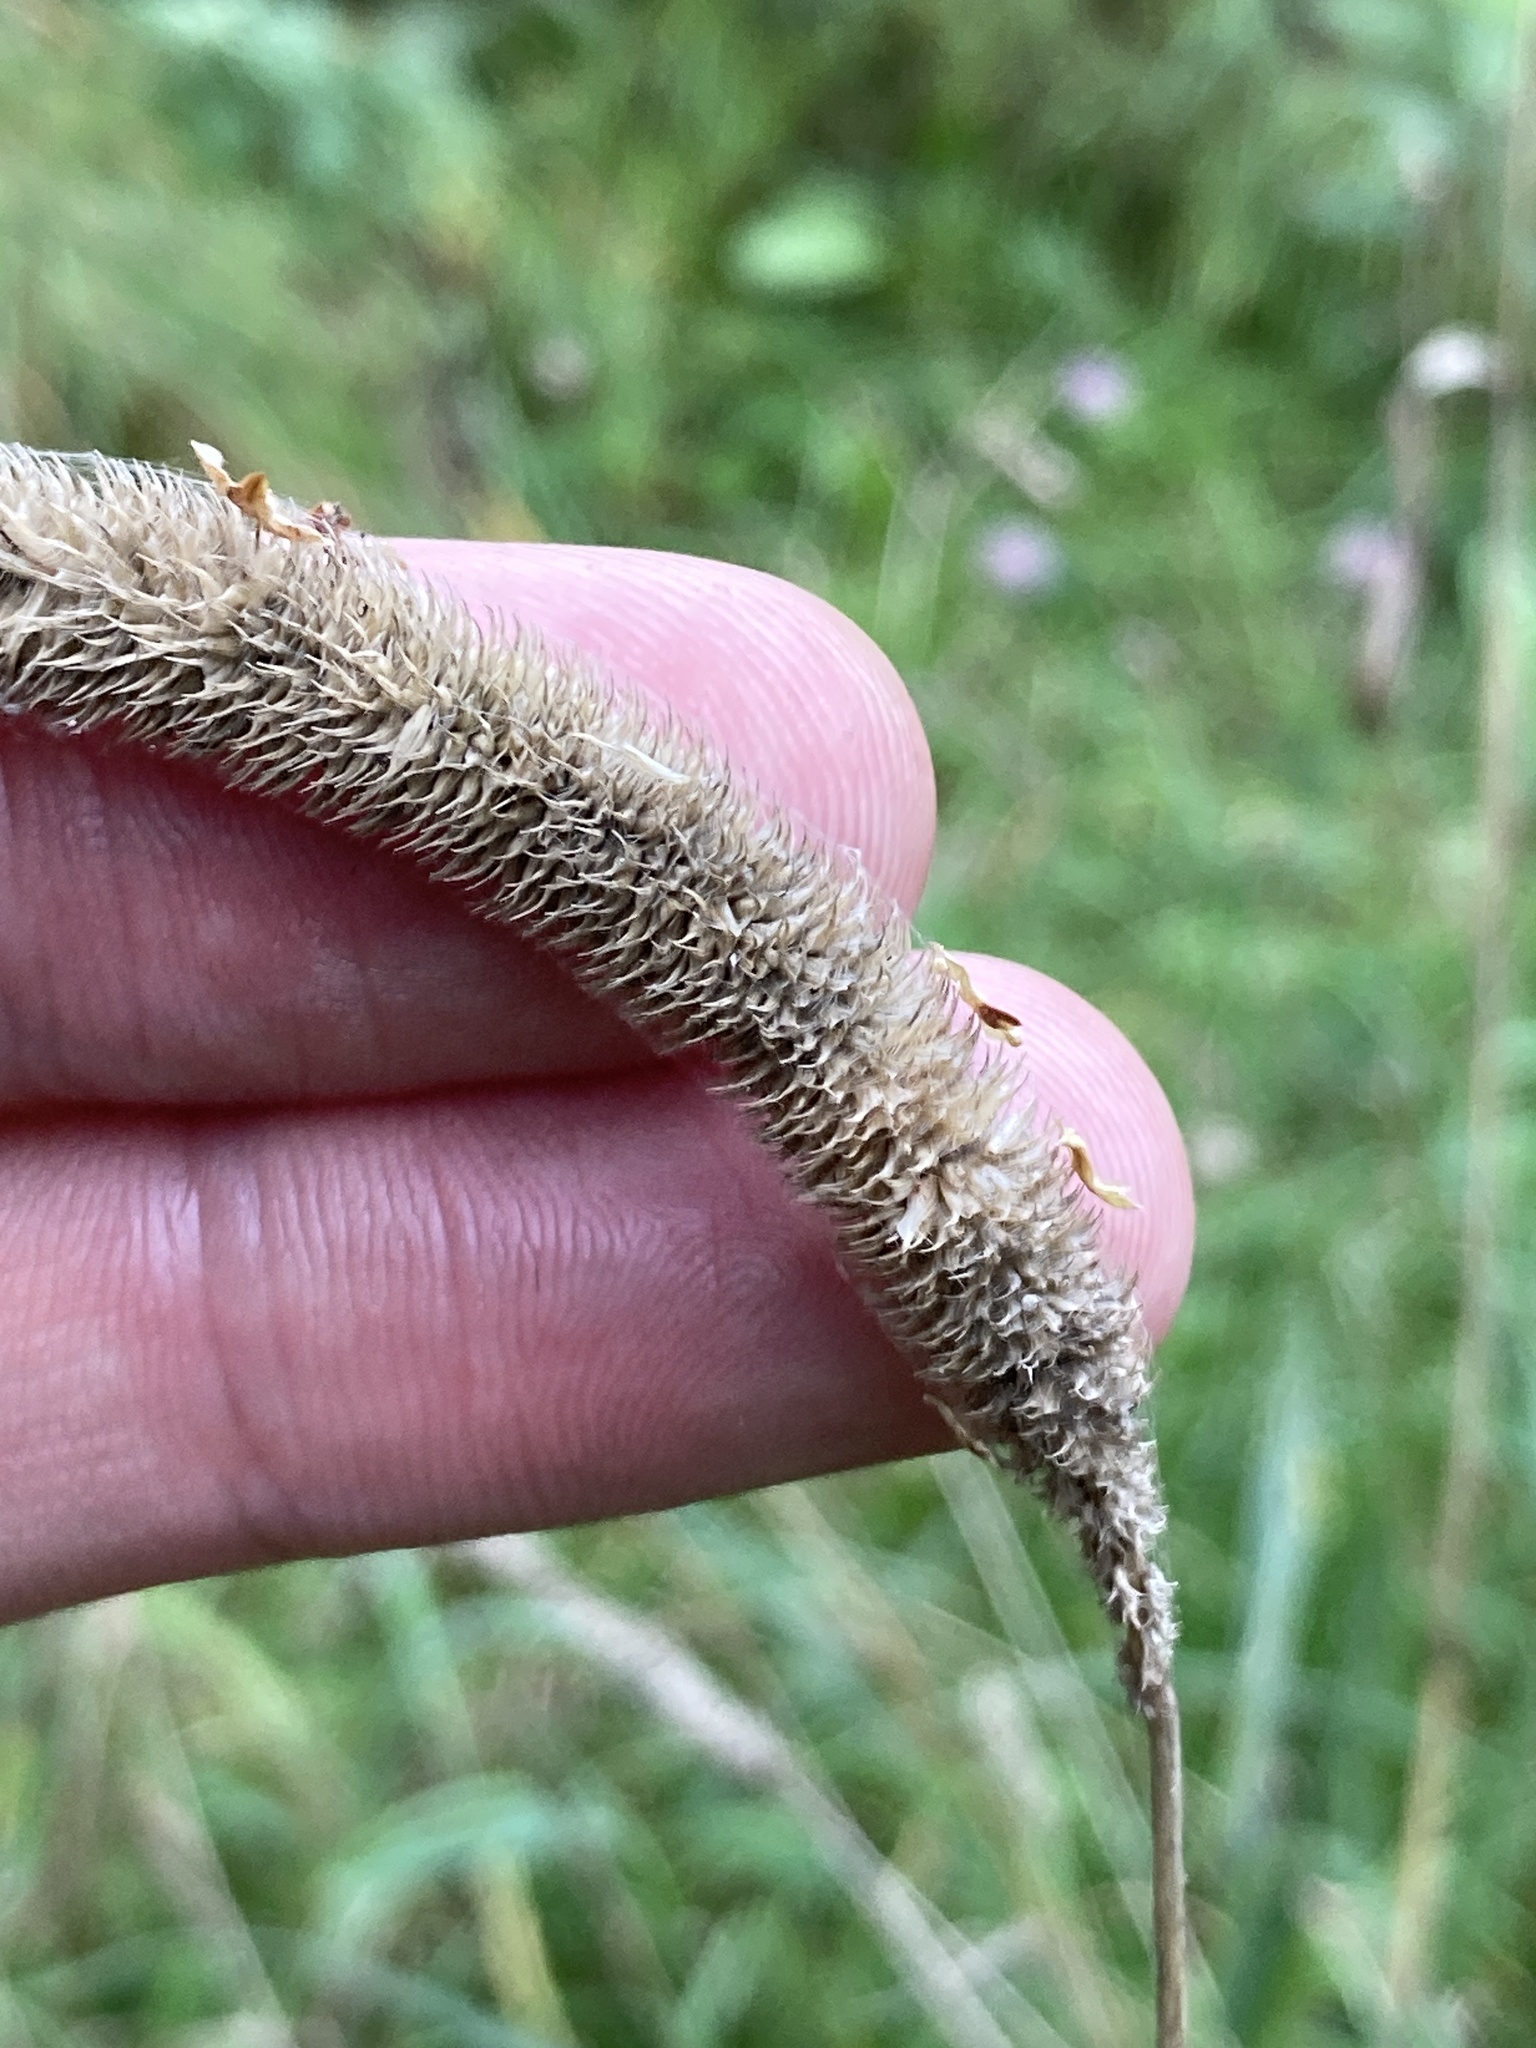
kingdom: Plantae
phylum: Tracheophyta
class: Liliopsida
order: Poales
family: Poaceae
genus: Phleum
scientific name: Phleum pratense
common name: Timothy grass
